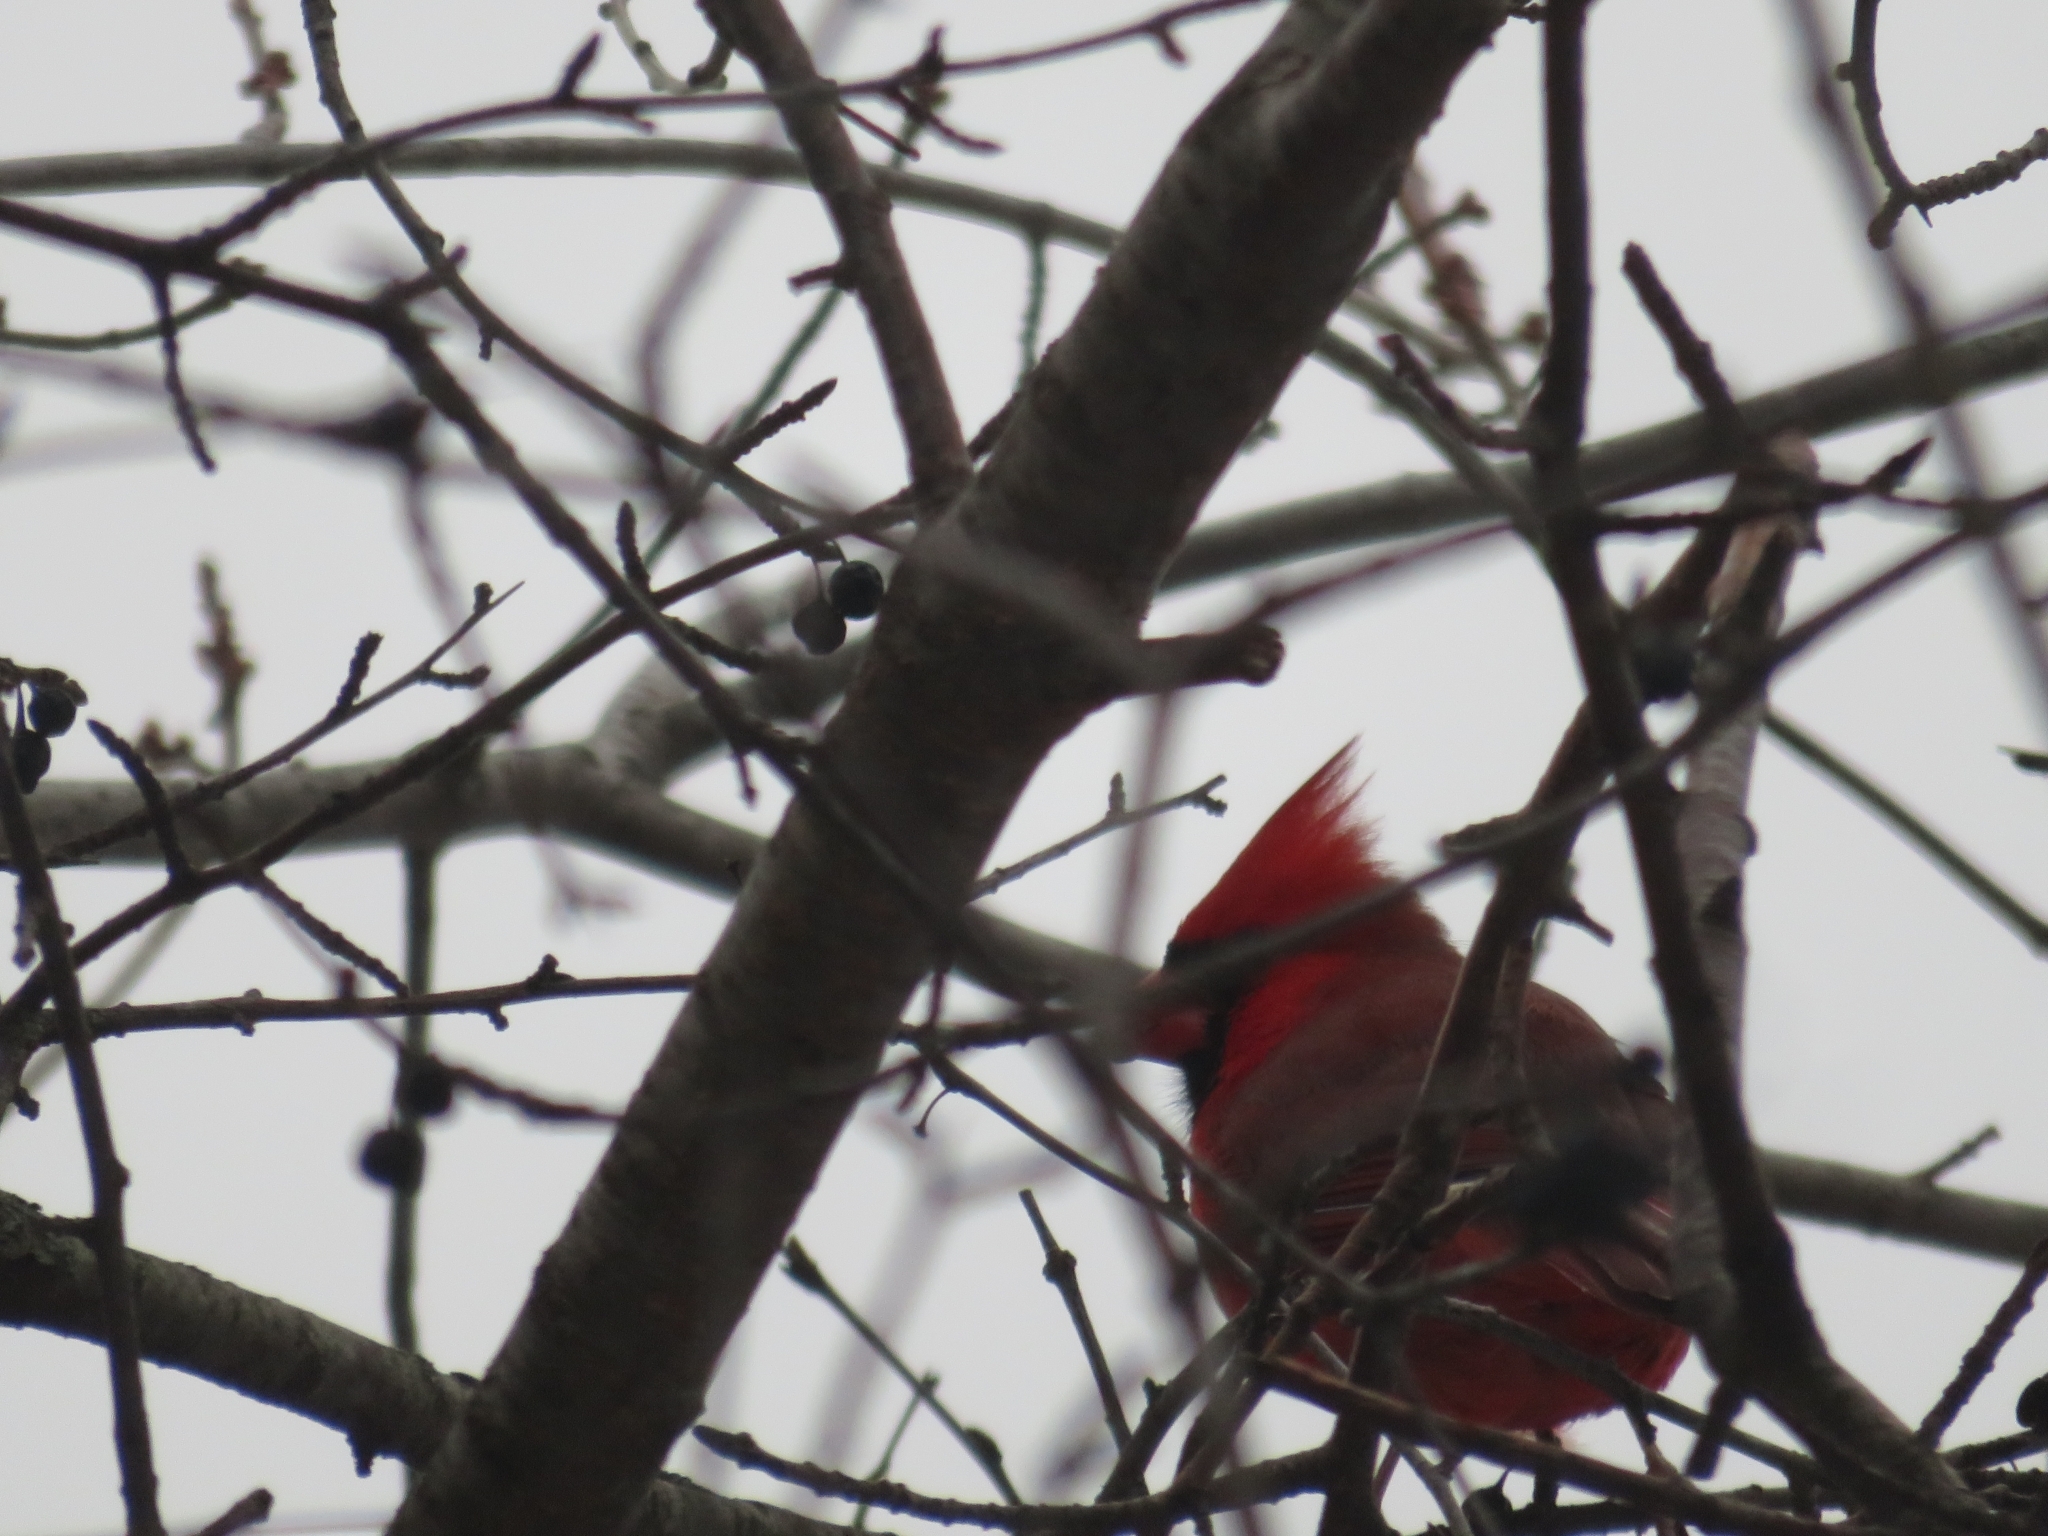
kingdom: Animalia
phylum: Chordata
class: Aves
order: Passeriformes
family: Cardinalidae
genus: Cardinalis
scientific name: Cardinalis cardinalis
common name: Northern cardinal
